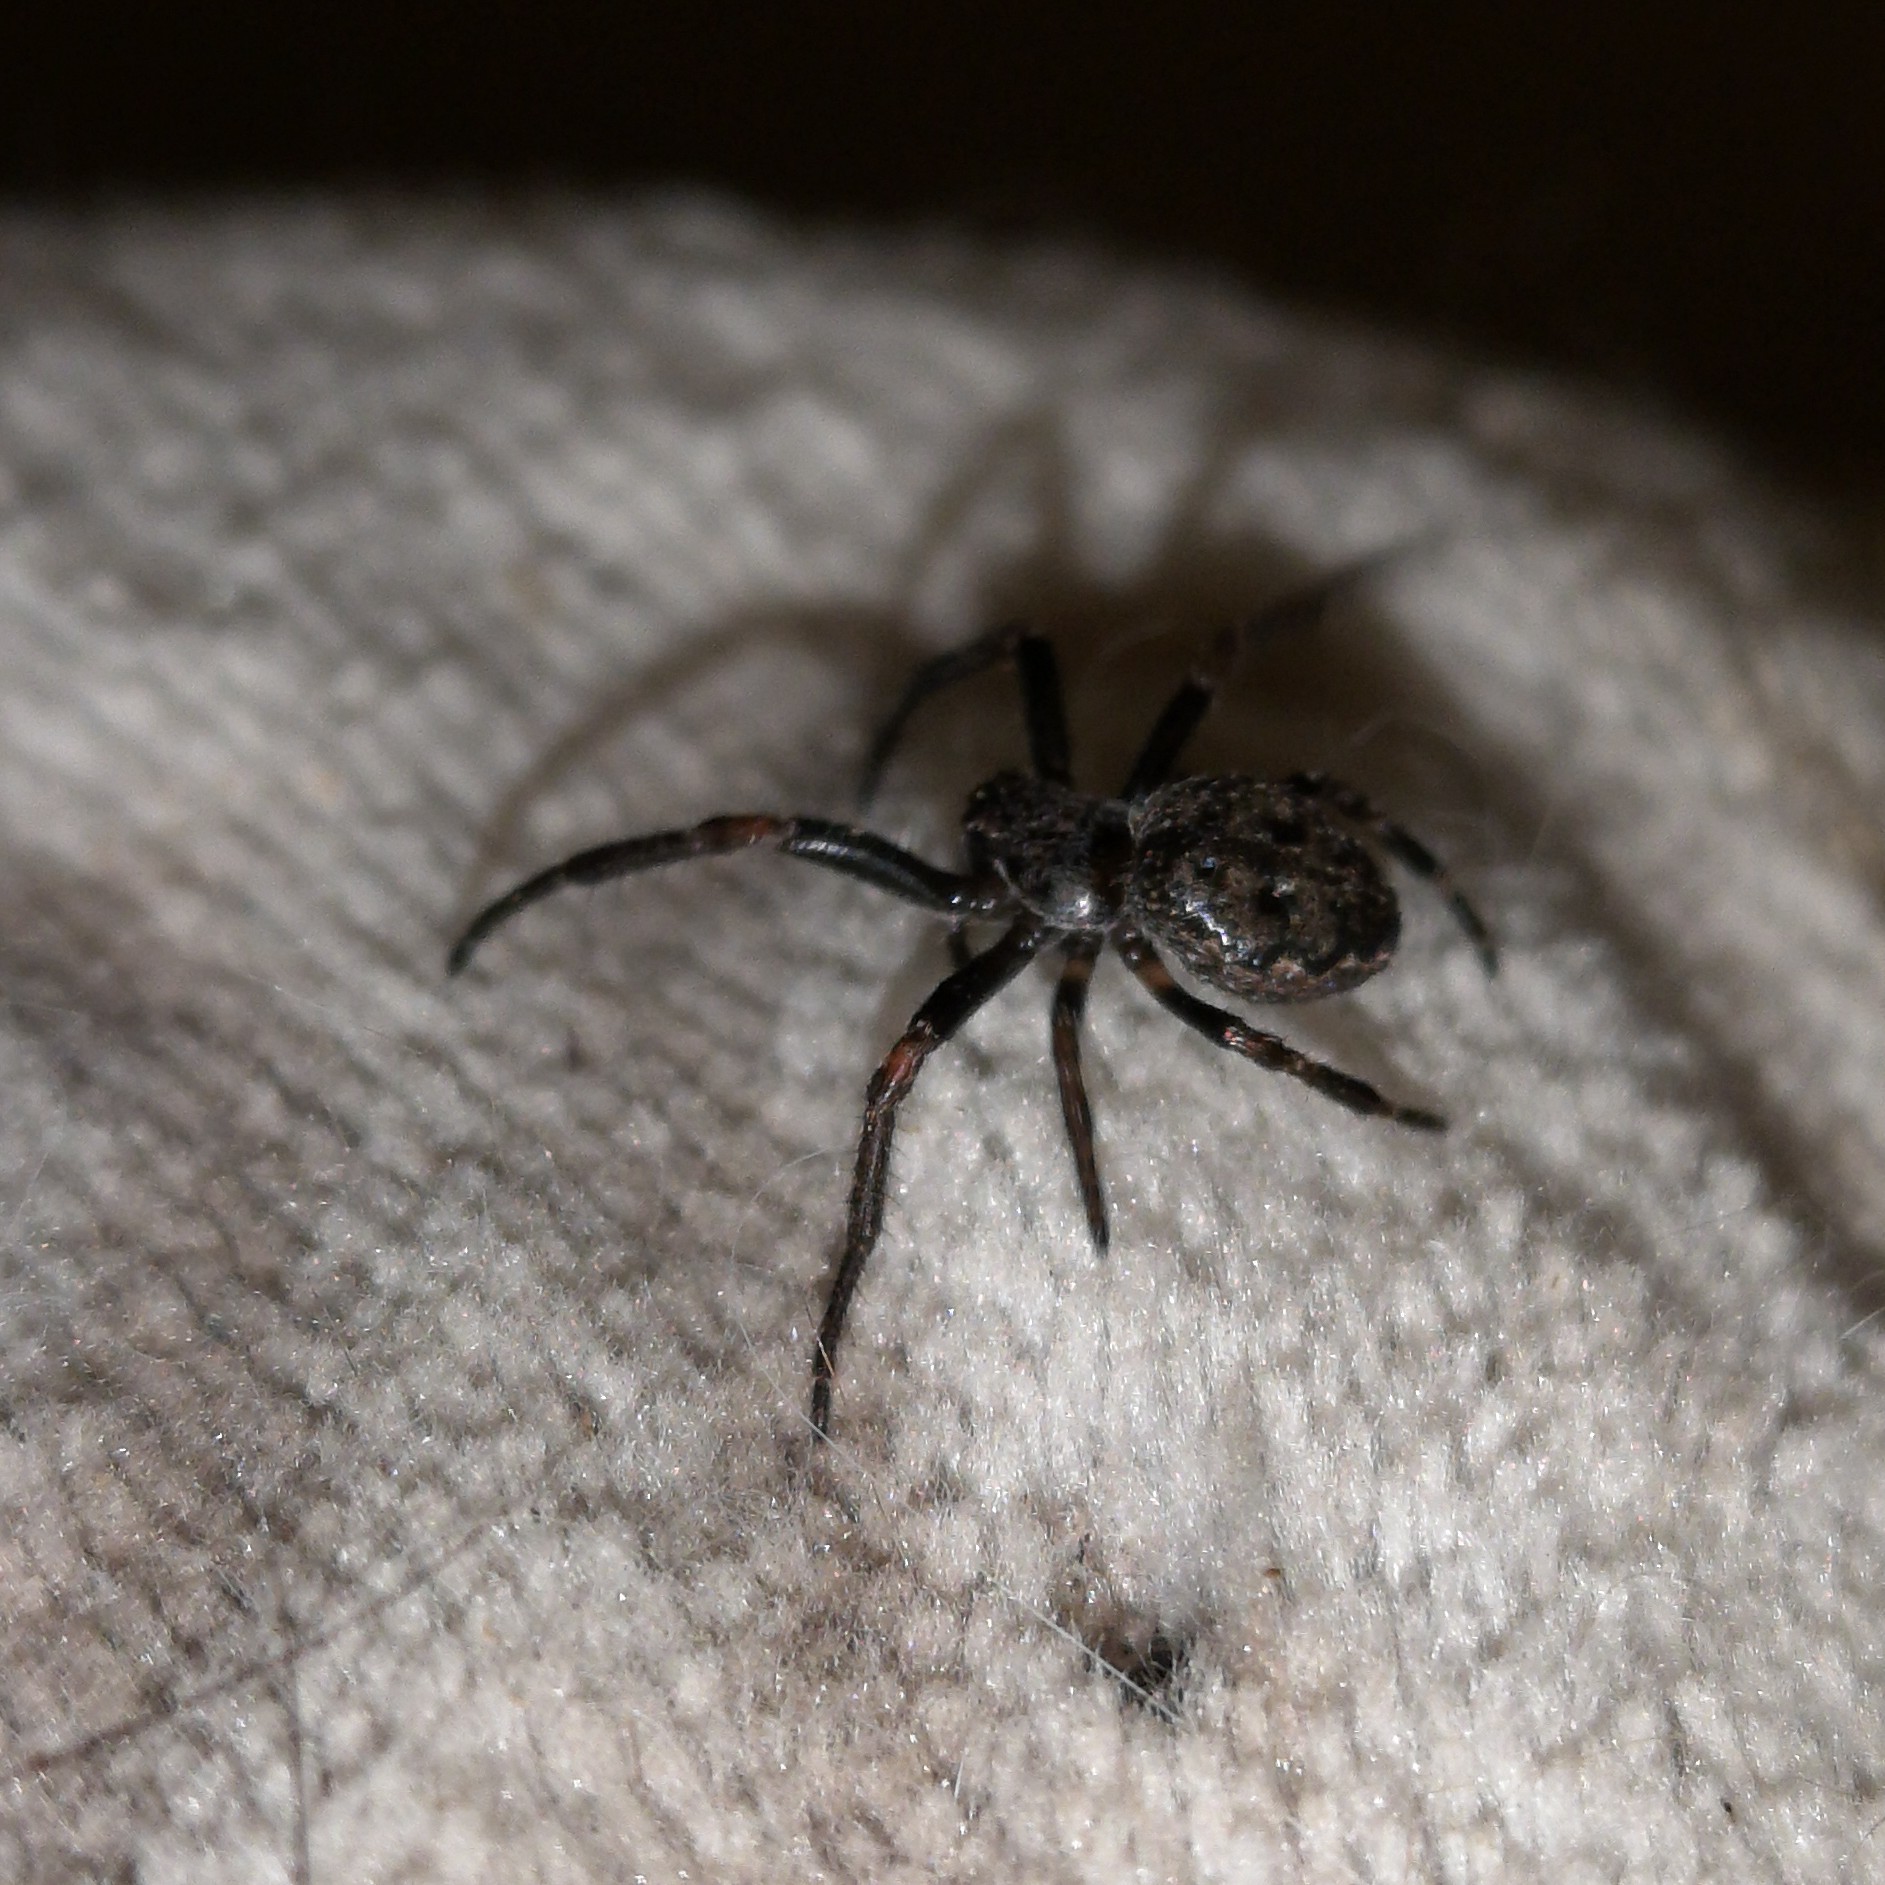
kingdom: Animalia
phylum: Arthropoda
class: Arachnida
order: Araneae
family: Araneidae
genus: Nuctenea
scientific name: Nuctenea umbratica
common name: Toad spider
